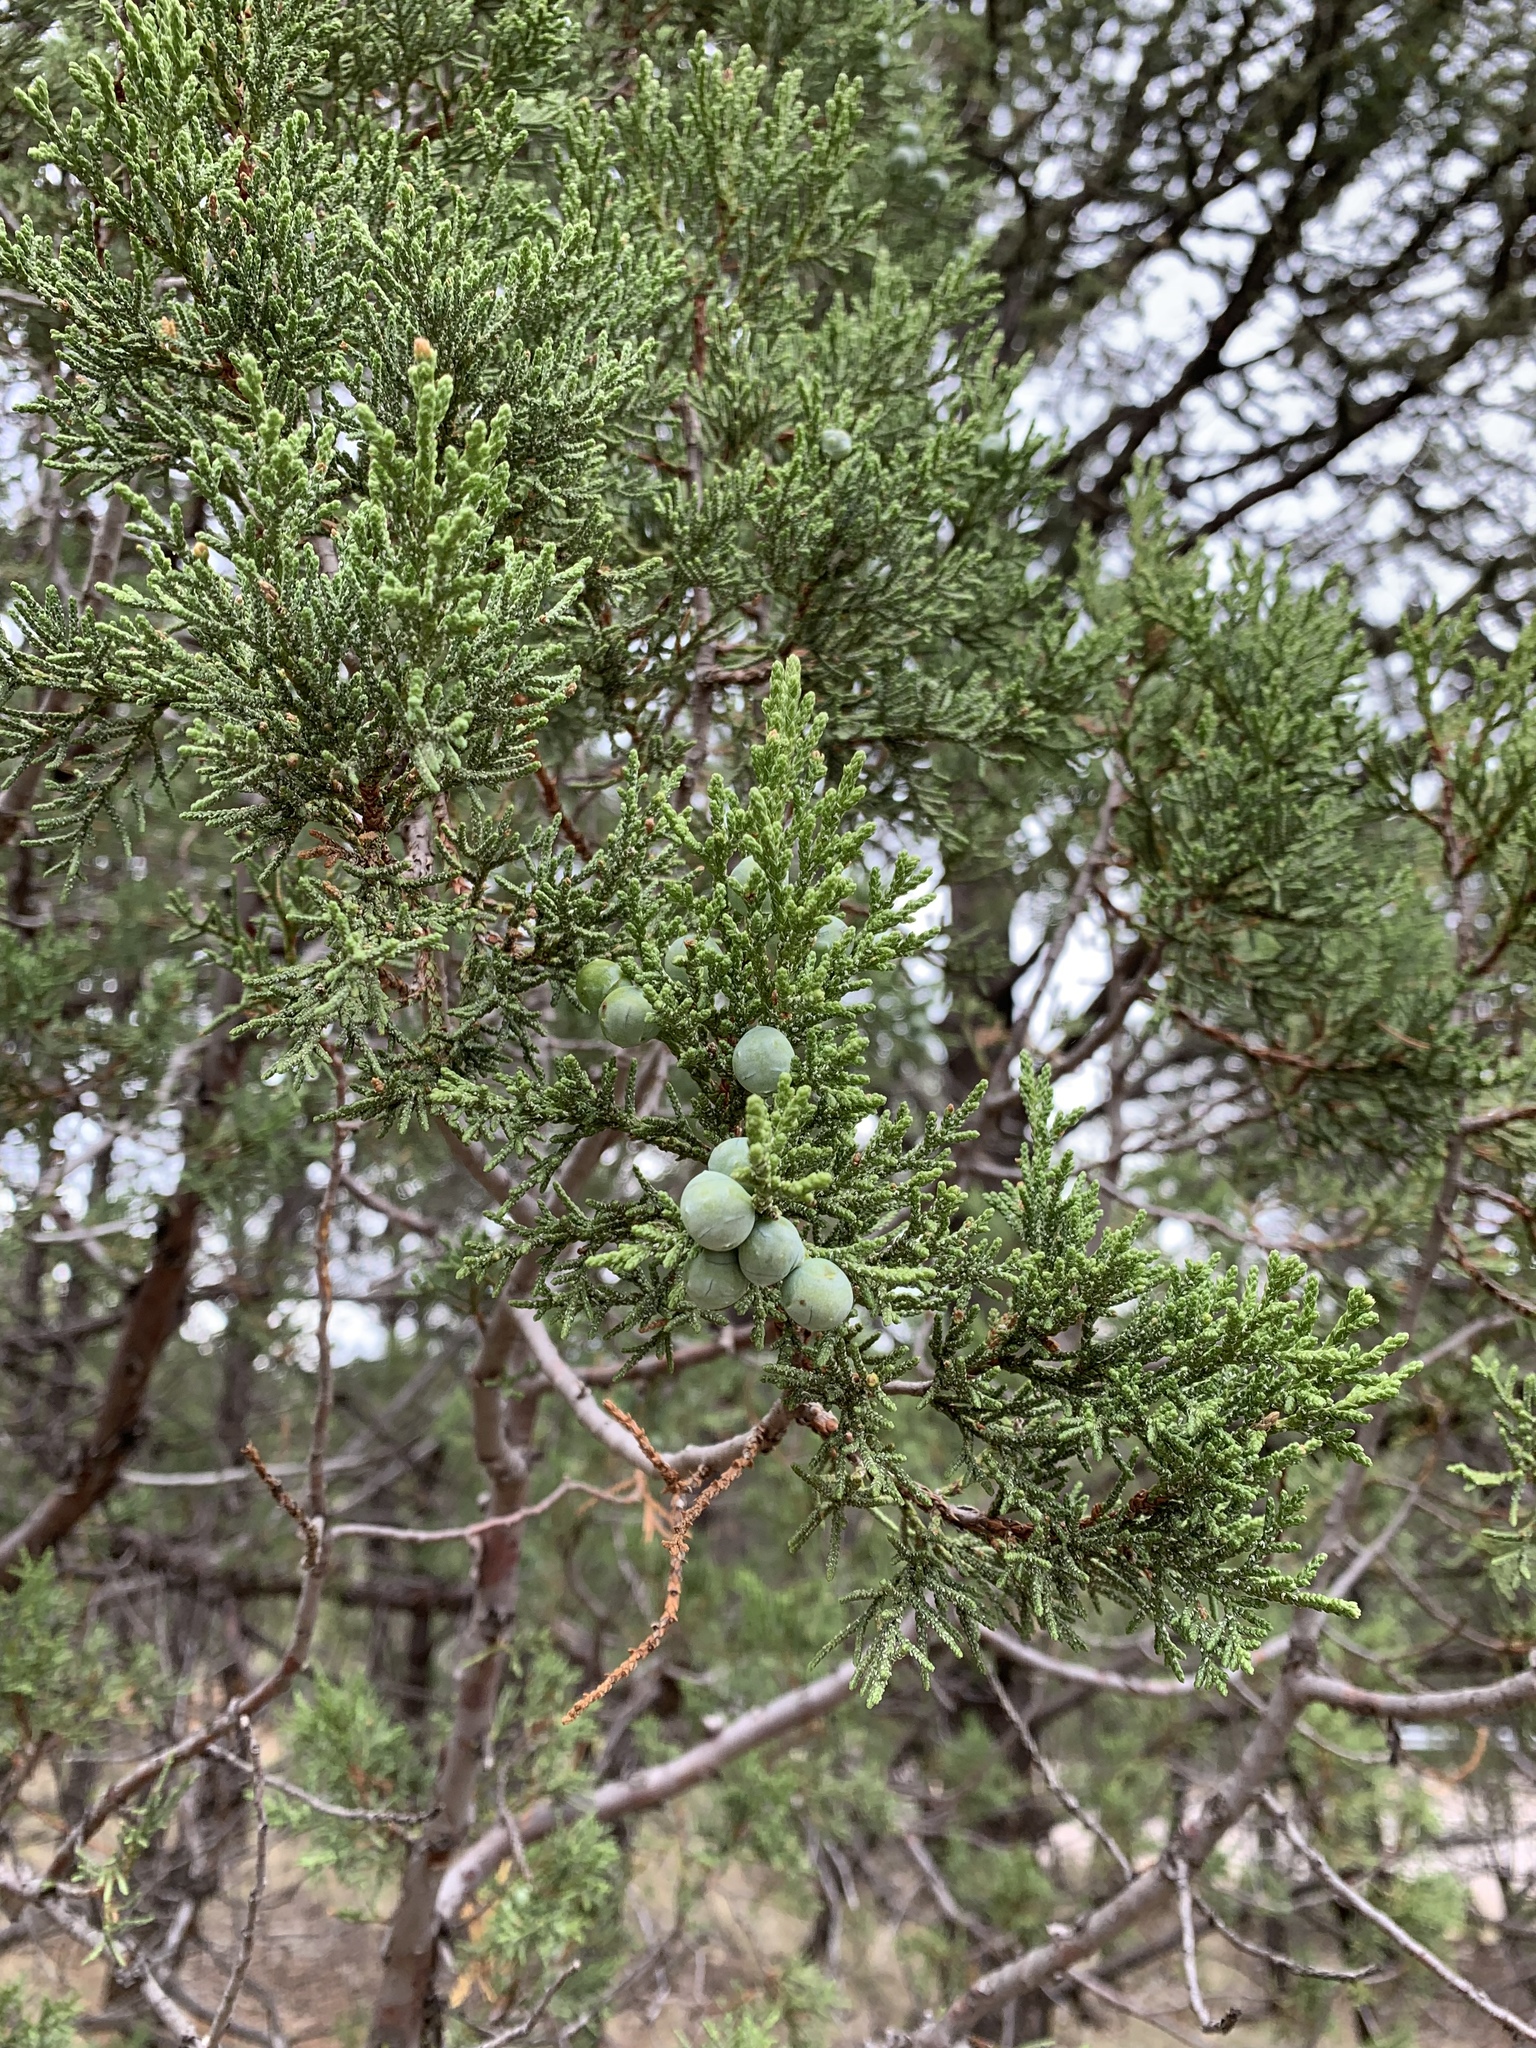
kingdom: Plantae
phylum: Tracheophyta
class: Pinopsida
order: Pinales
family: Cupressaceae
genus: Juniperus
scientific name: Juniperus deppeana
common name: Alligator juniper
